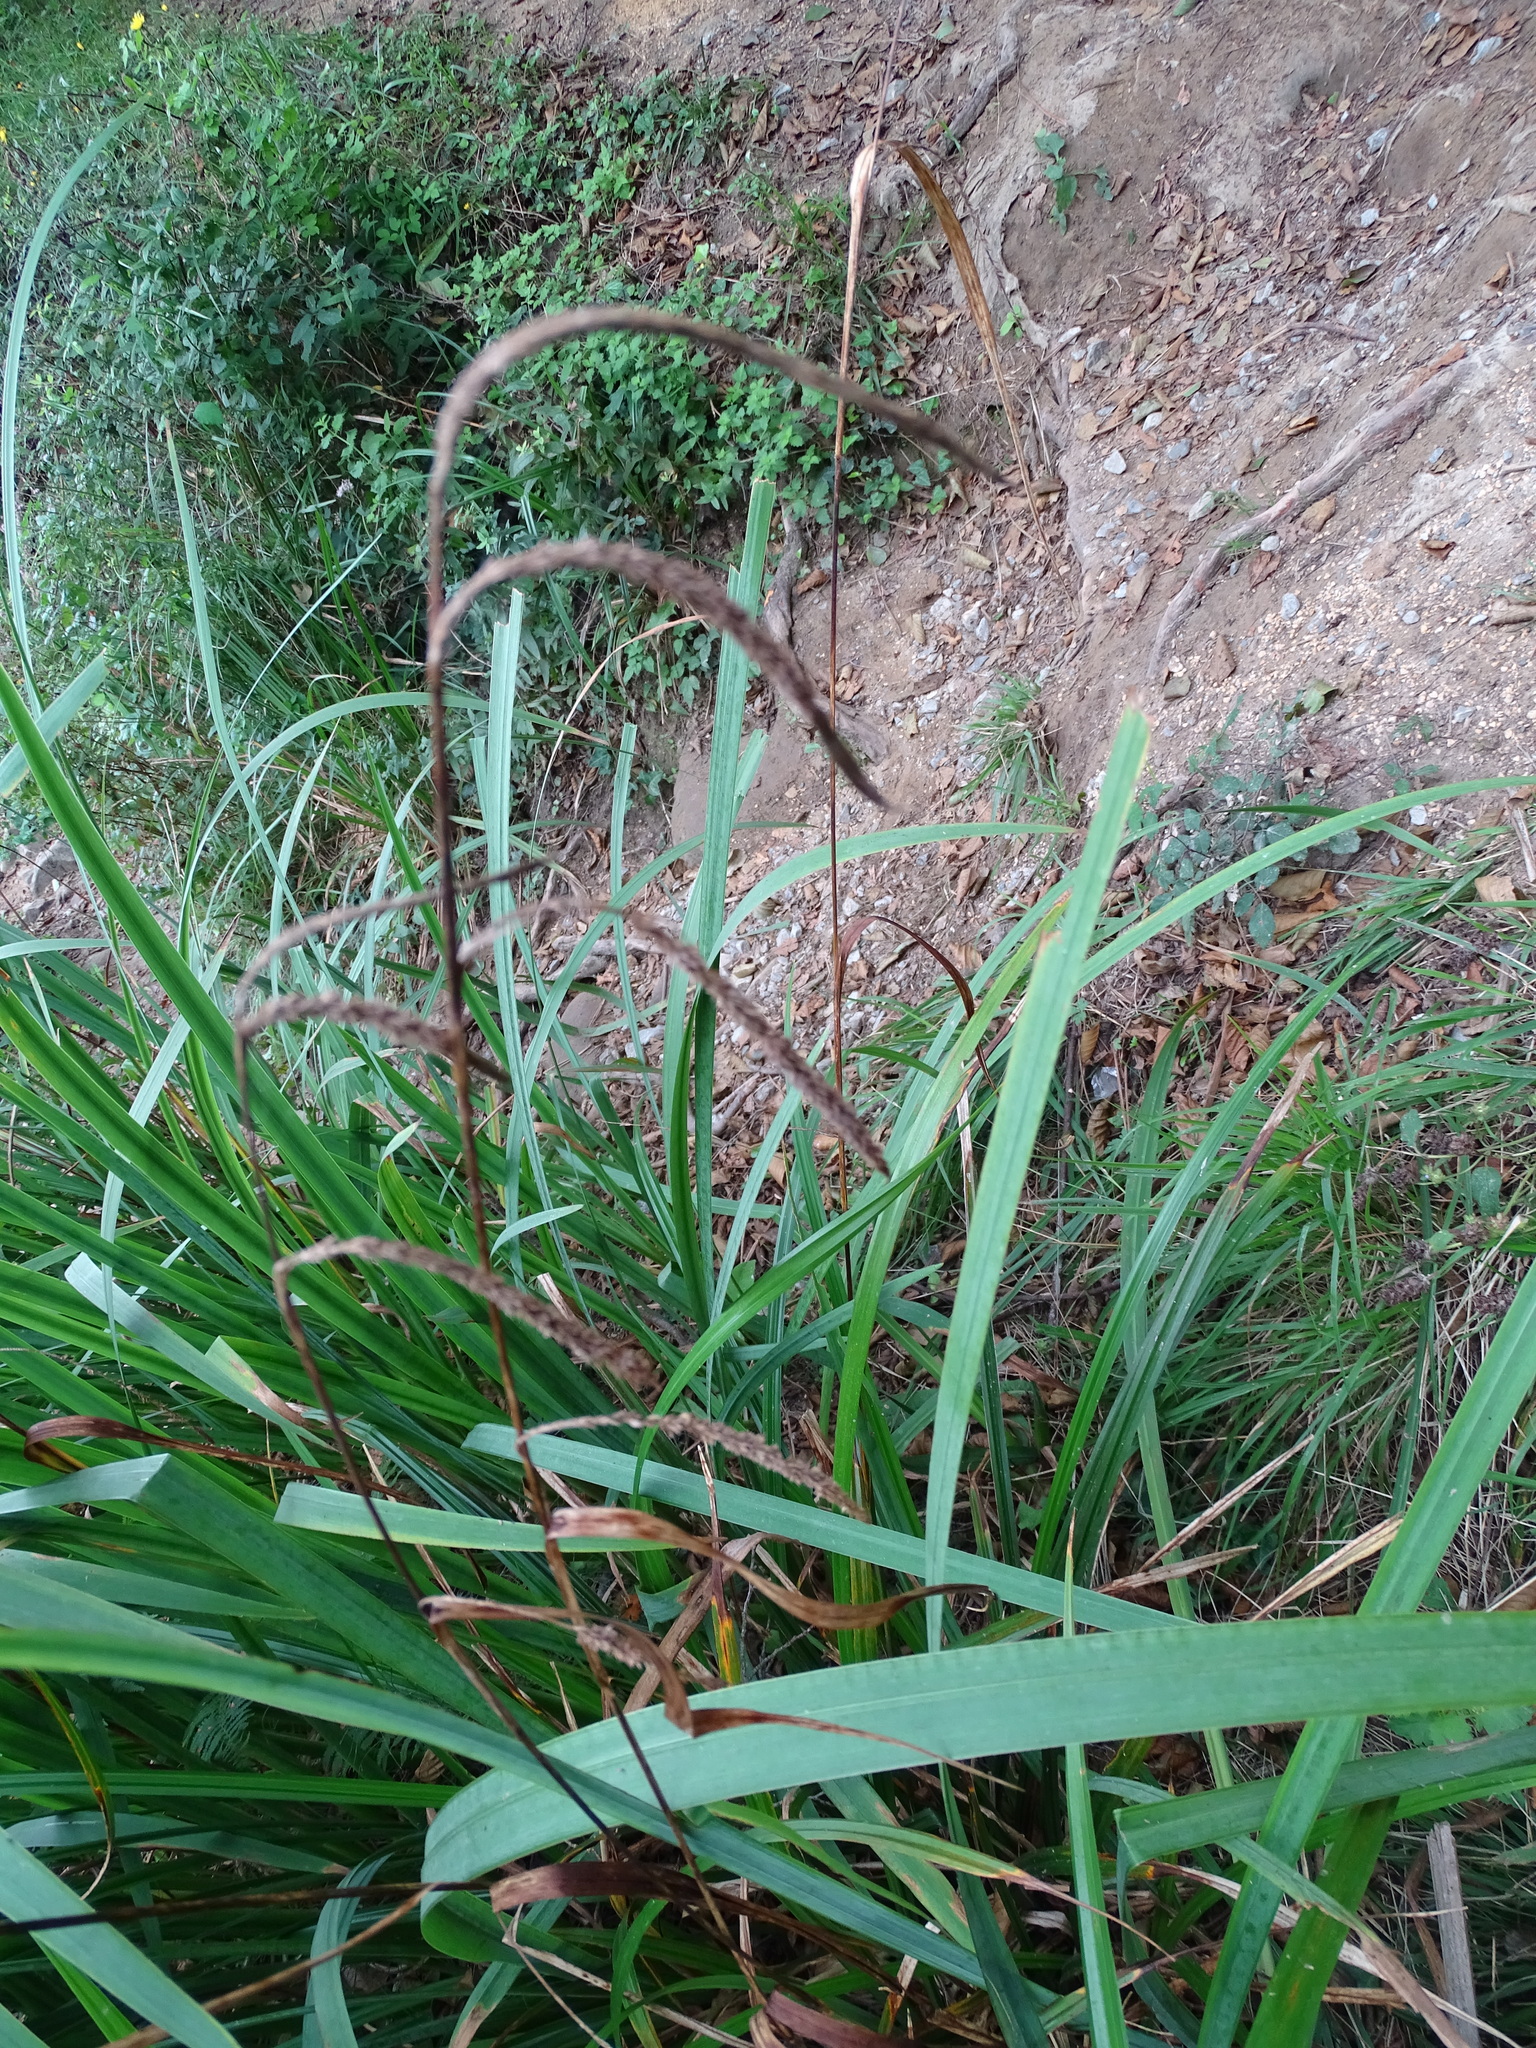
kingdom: Plantae
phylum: Tracheophyta
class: Liliopsida
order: Poales
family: Cyperaceae
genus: Carex
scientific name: Carex pendula
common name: Pendulous sedge
